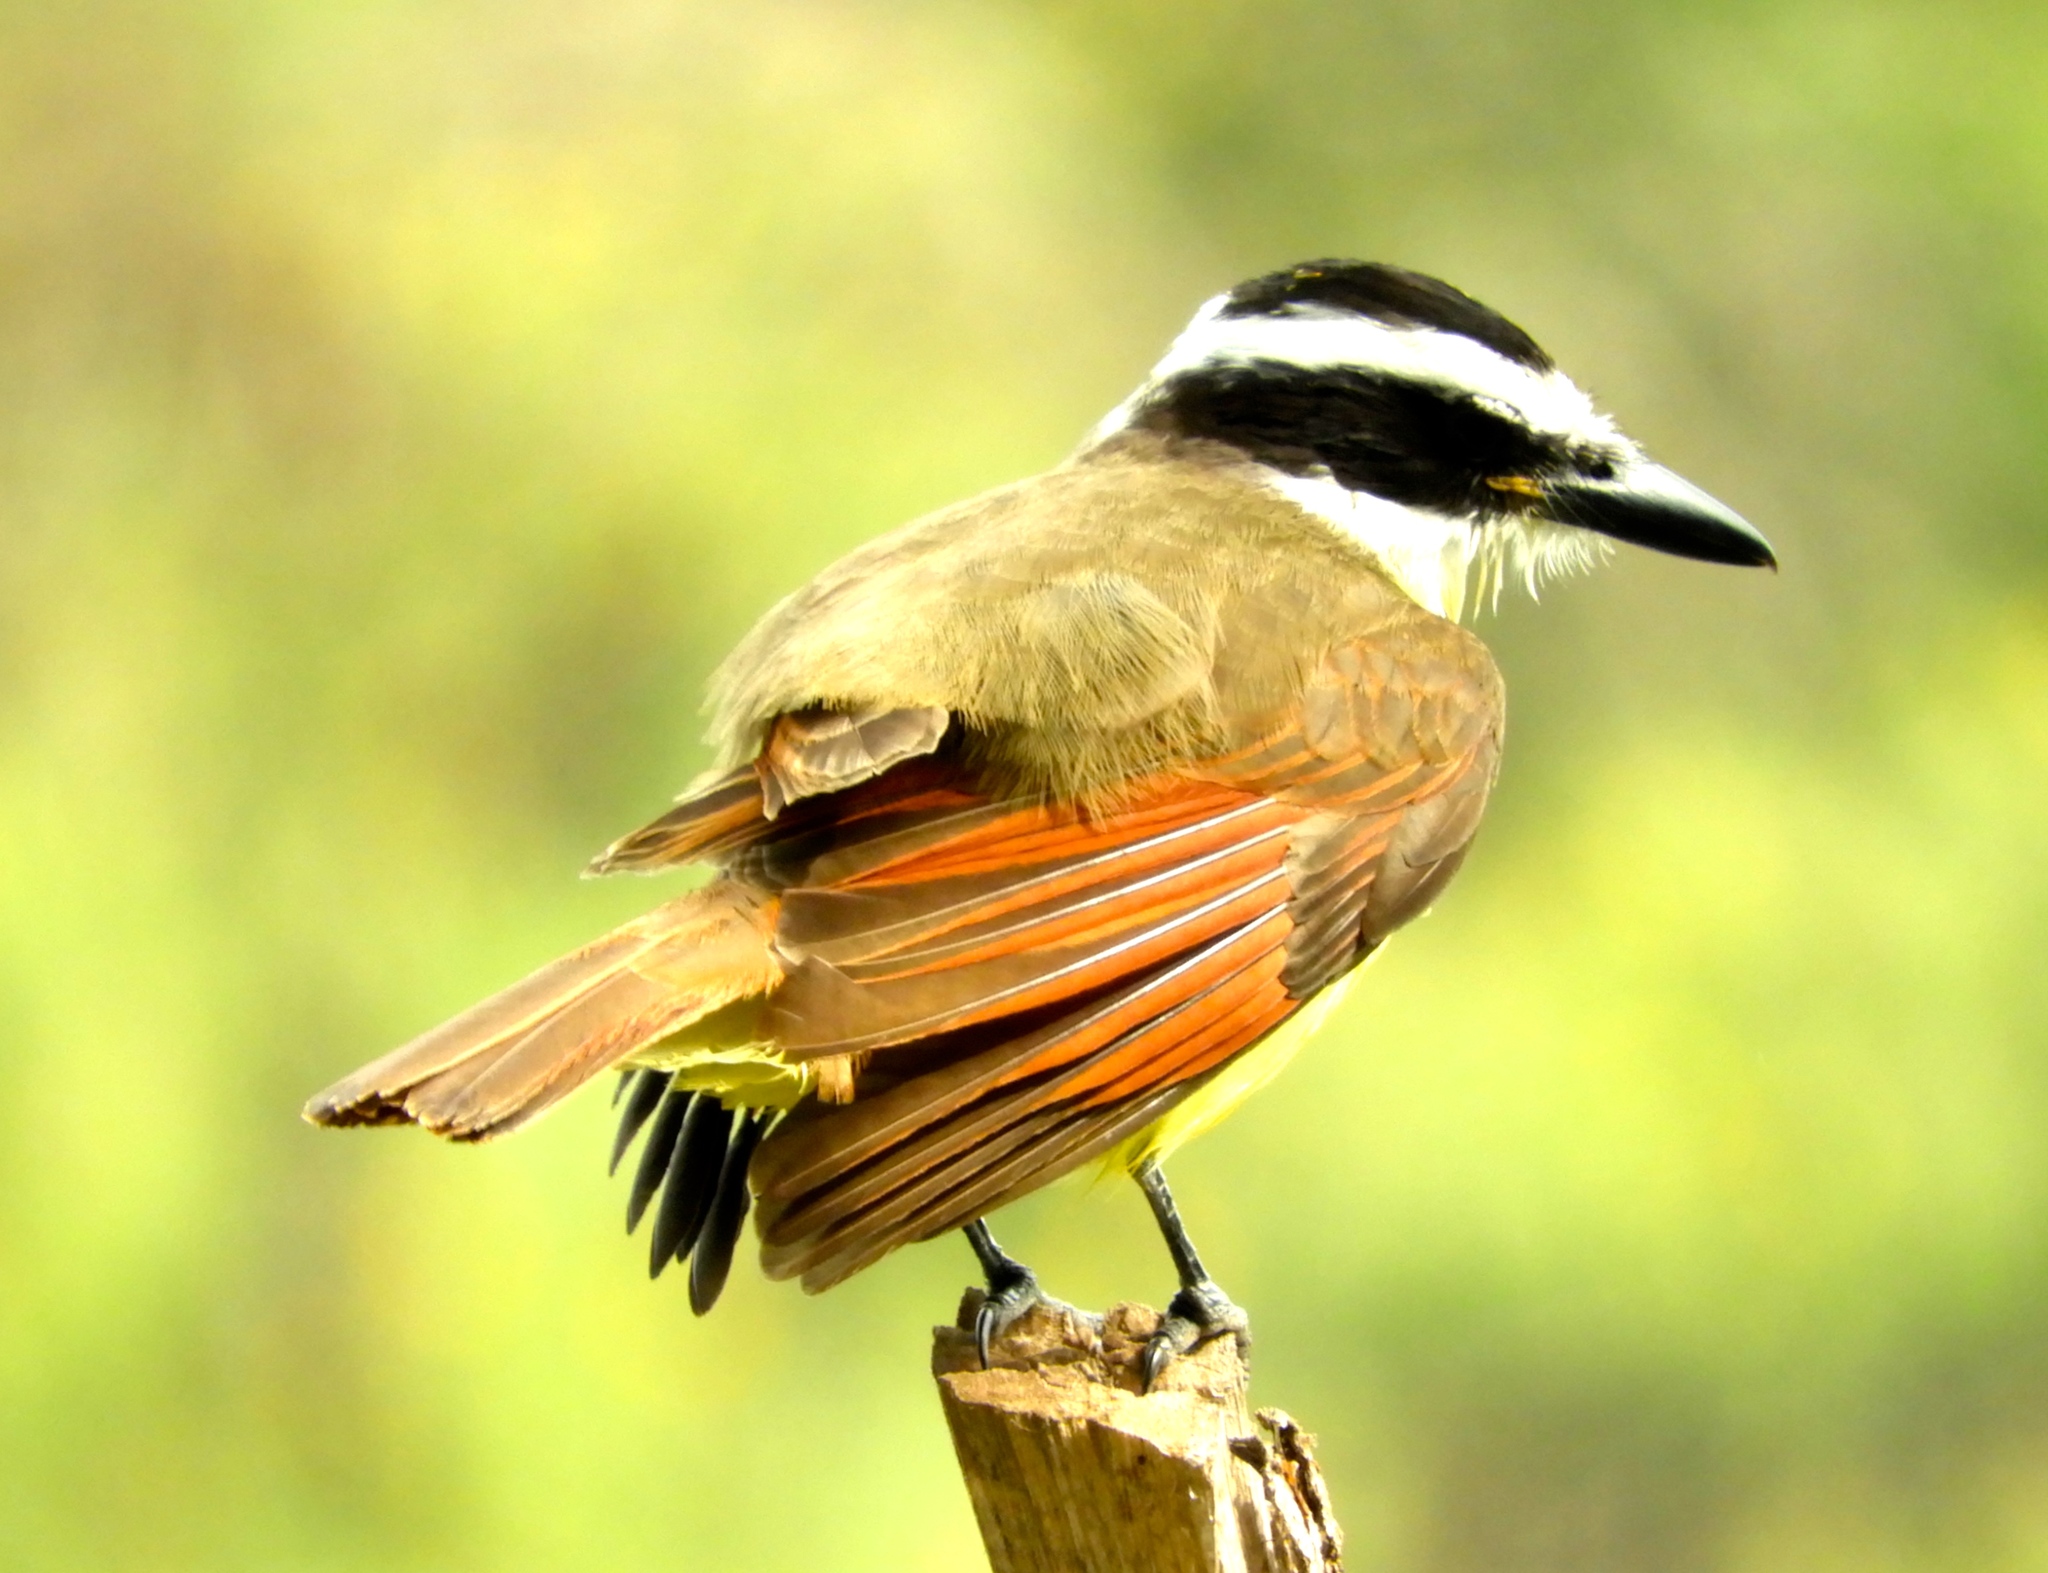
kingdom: Animalia
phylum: Chordata
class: Aves
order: Passeriformes
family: Tyrannidae
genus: Pitangus
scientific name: Pitangus sulphuratus
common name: Great kiskadee
